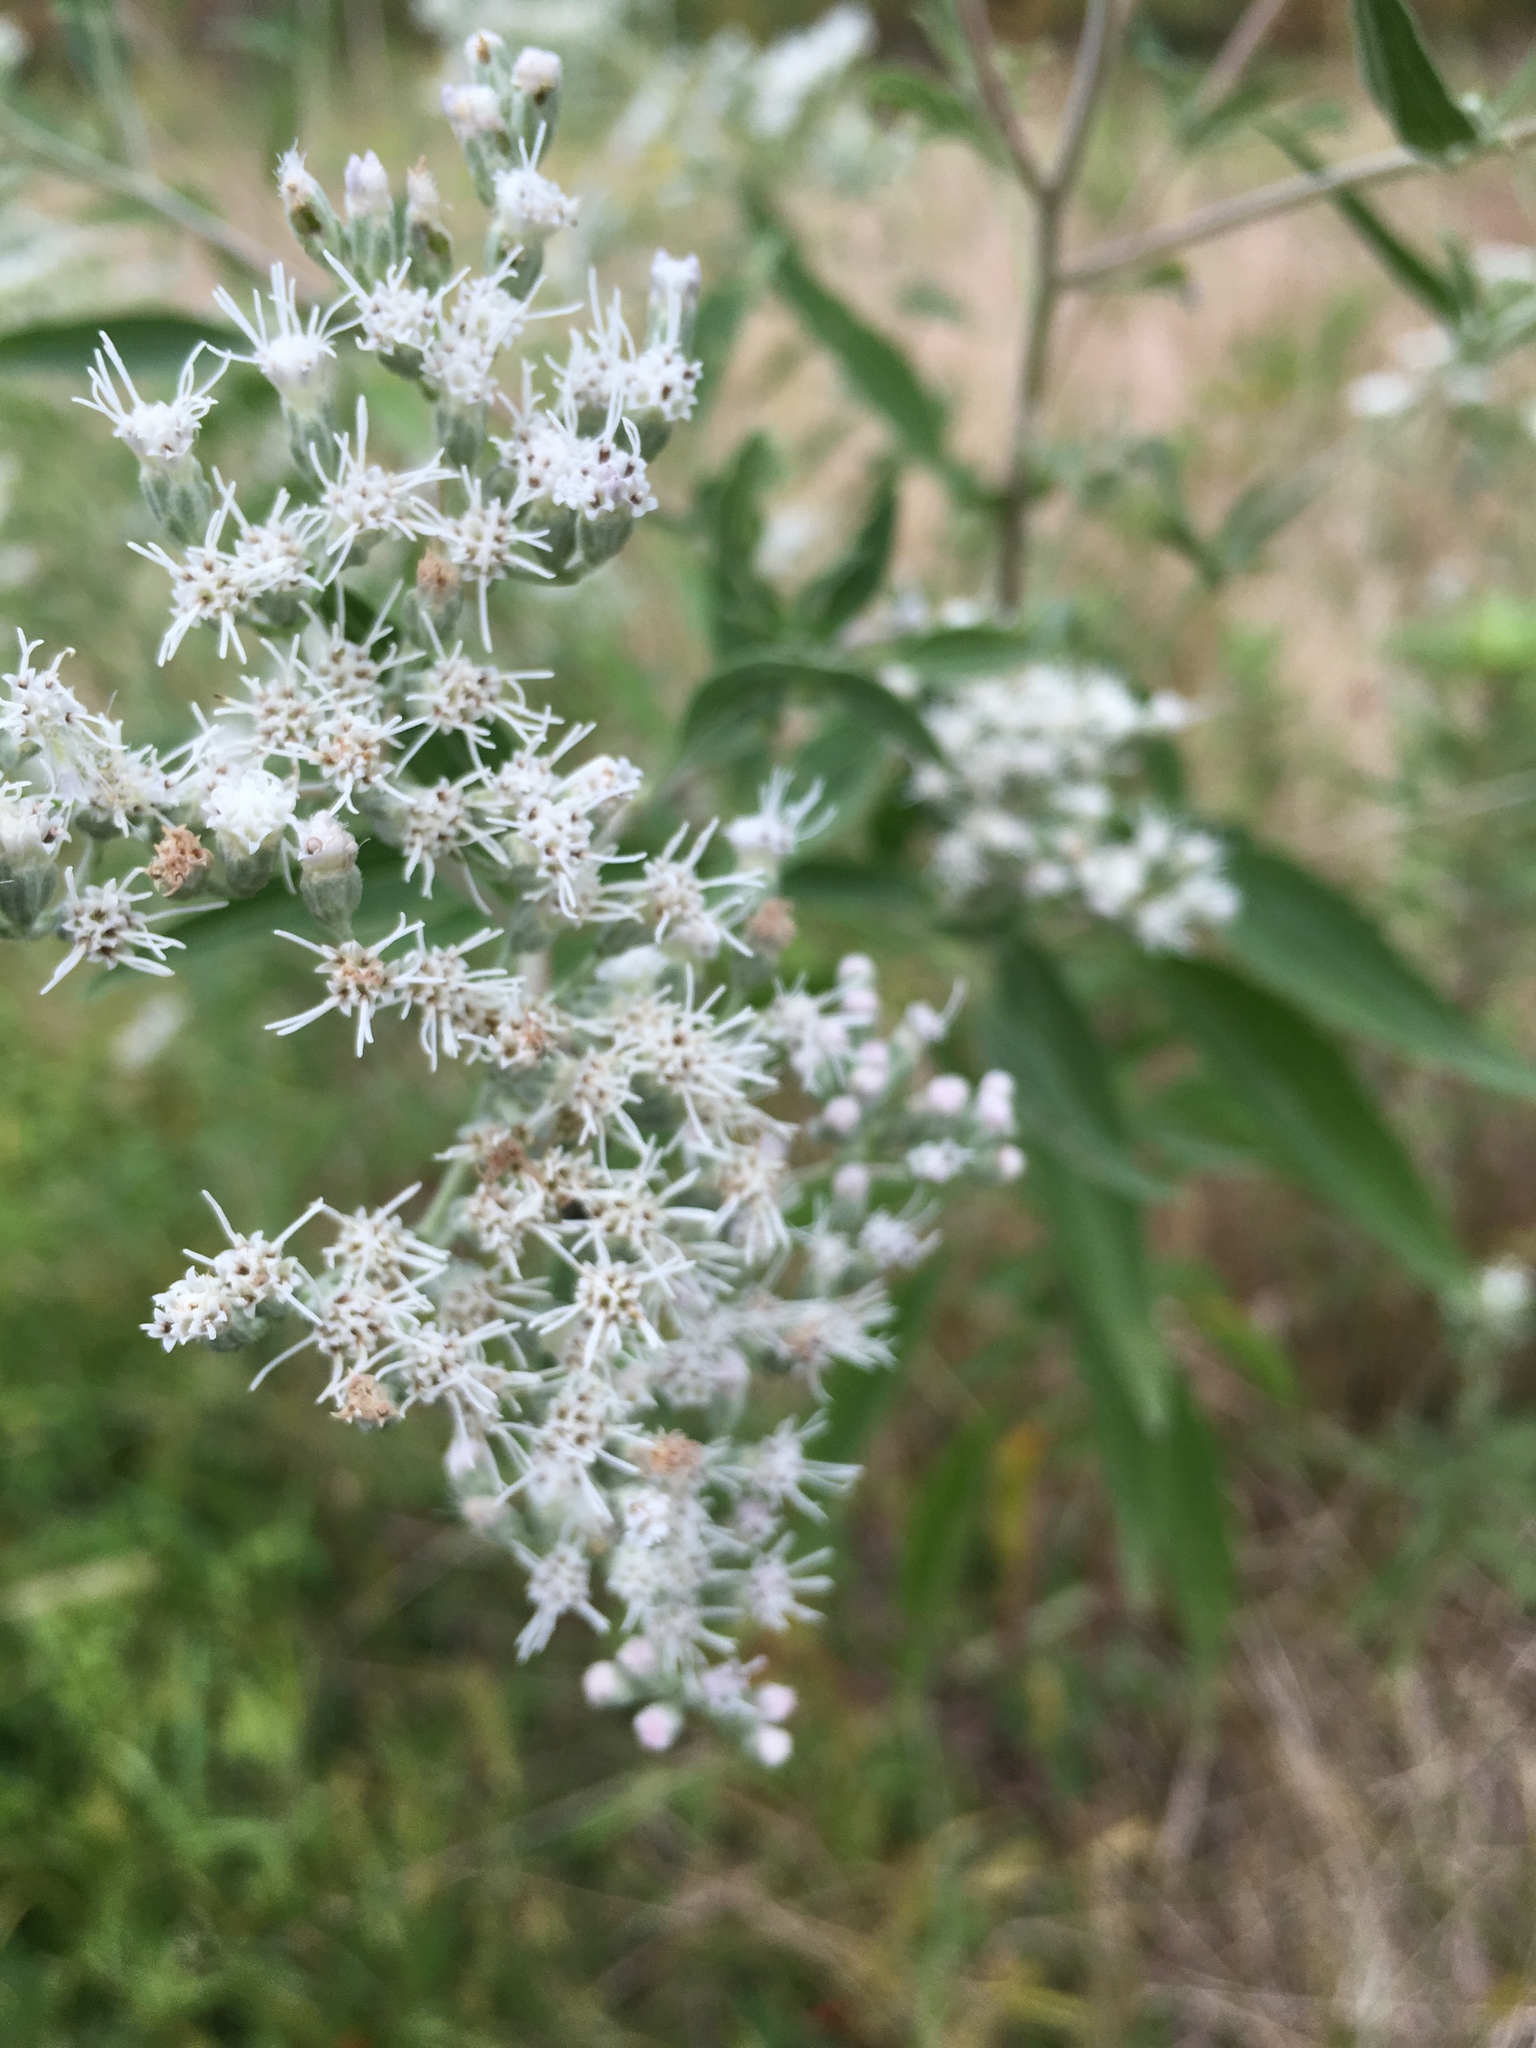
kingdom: Plantae
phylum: Tracheophyta
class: Magnoliopsida
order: Asterales
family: Asteraceae
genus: Eupatorium
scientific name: Eupatorium serotinum
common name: Late boneset
